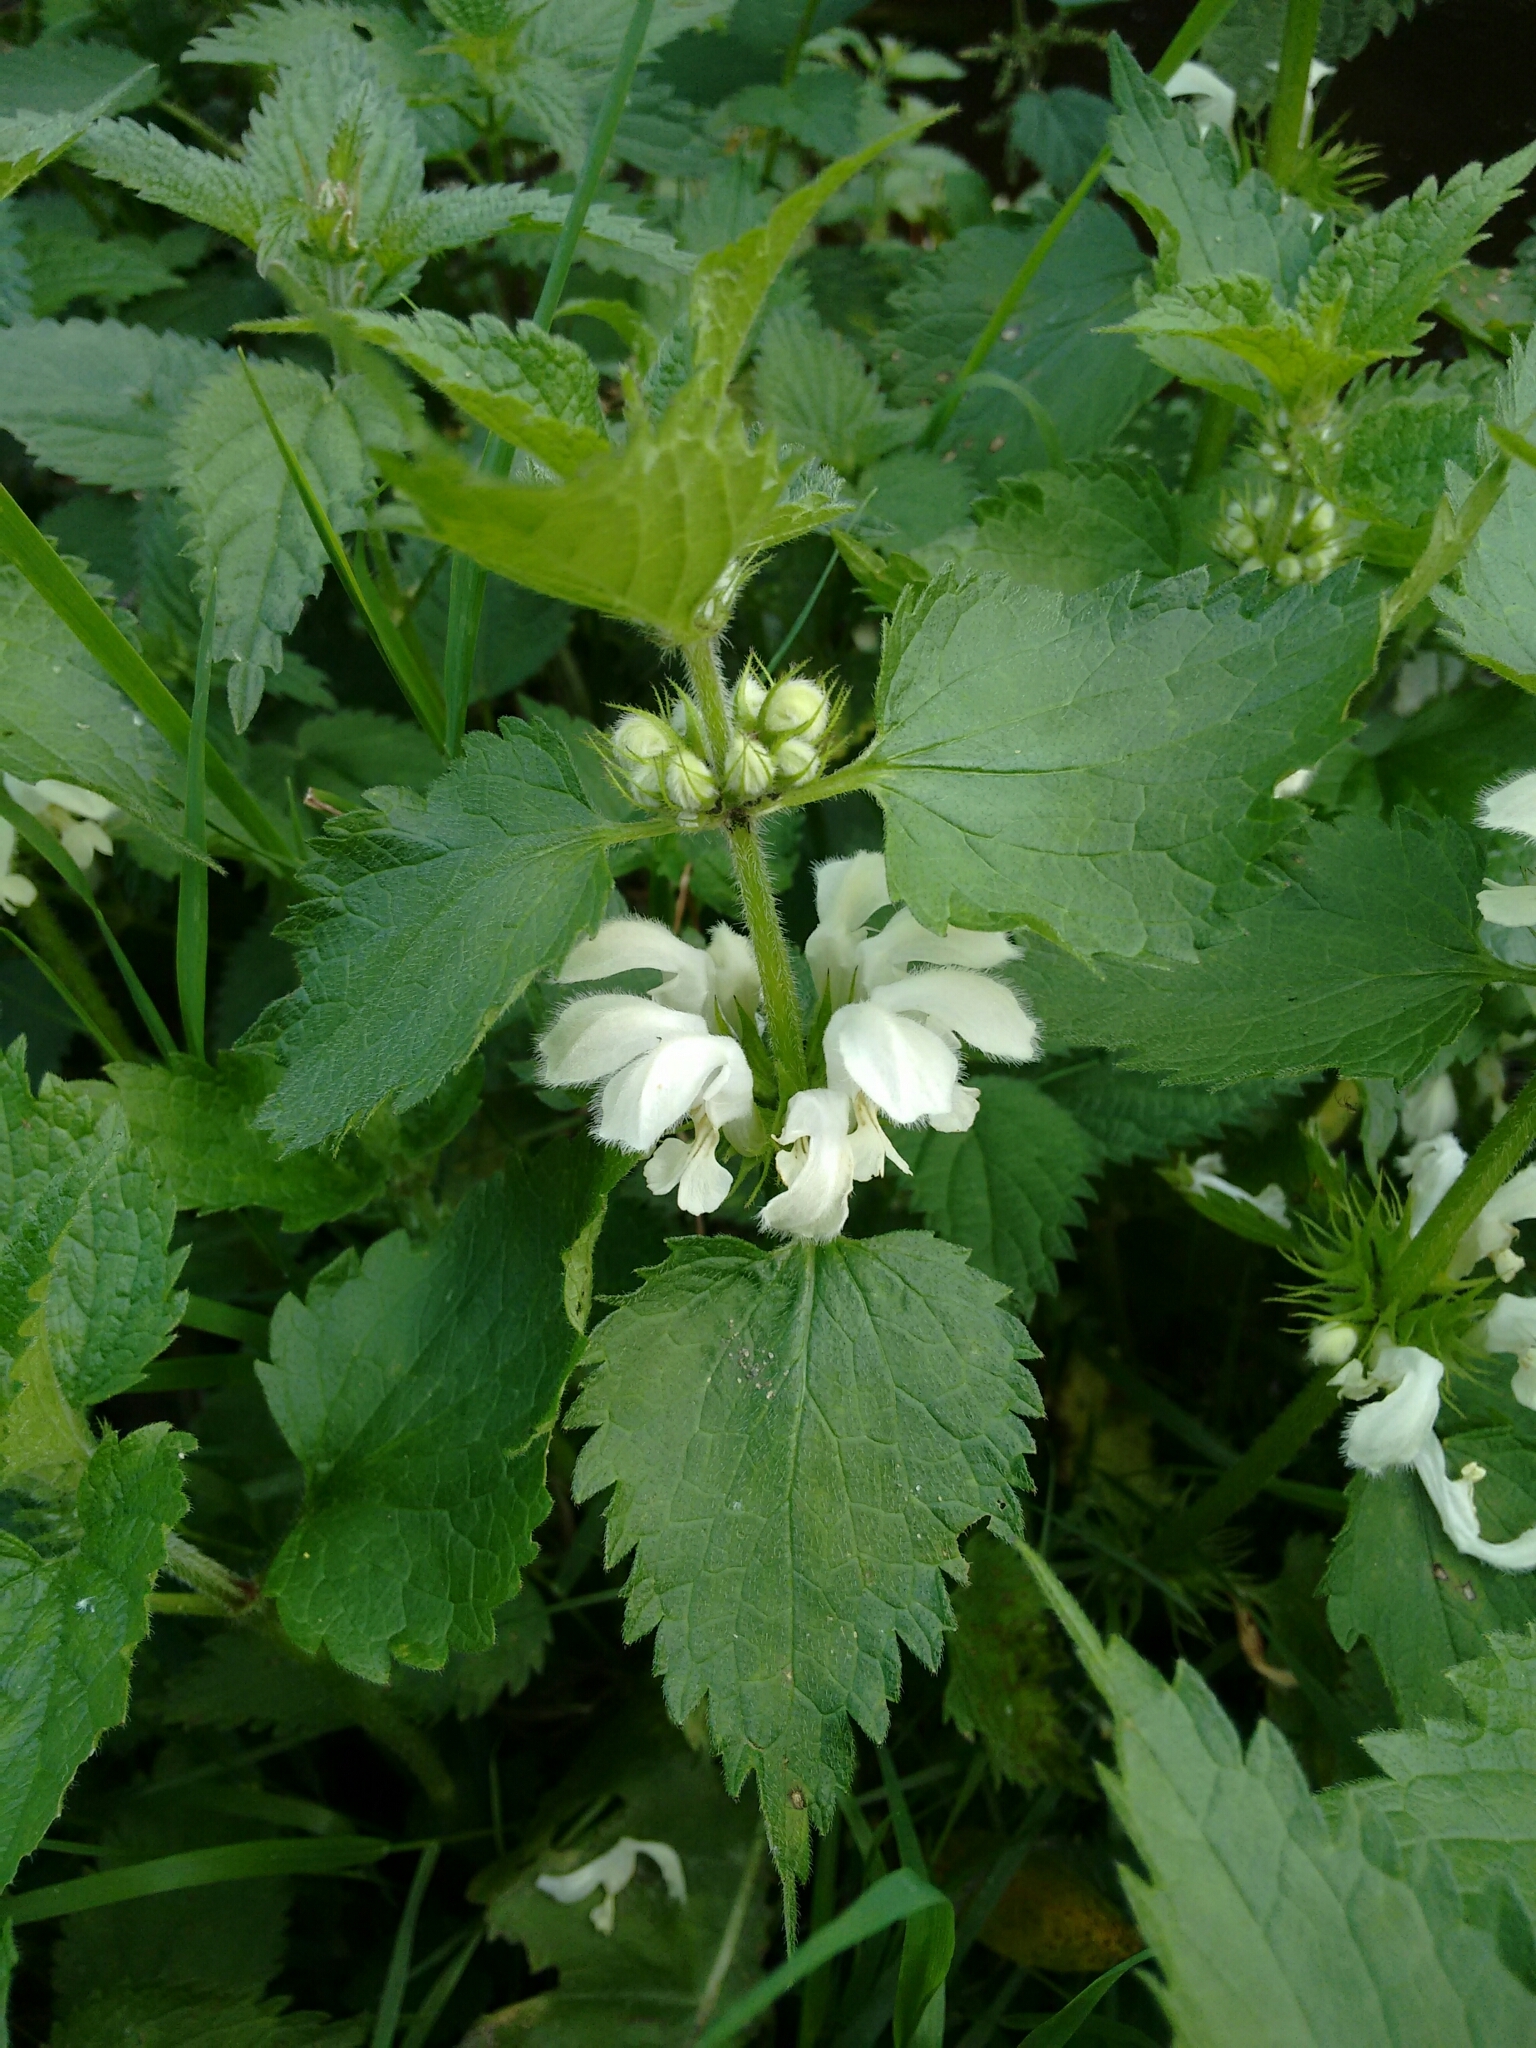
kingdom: Plantae
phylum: Tracheophyta
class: Magnoliopsida
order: Lamiales
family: Lamiaceae
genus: Lamium
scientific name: Lamium album
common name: White dead-nettle
